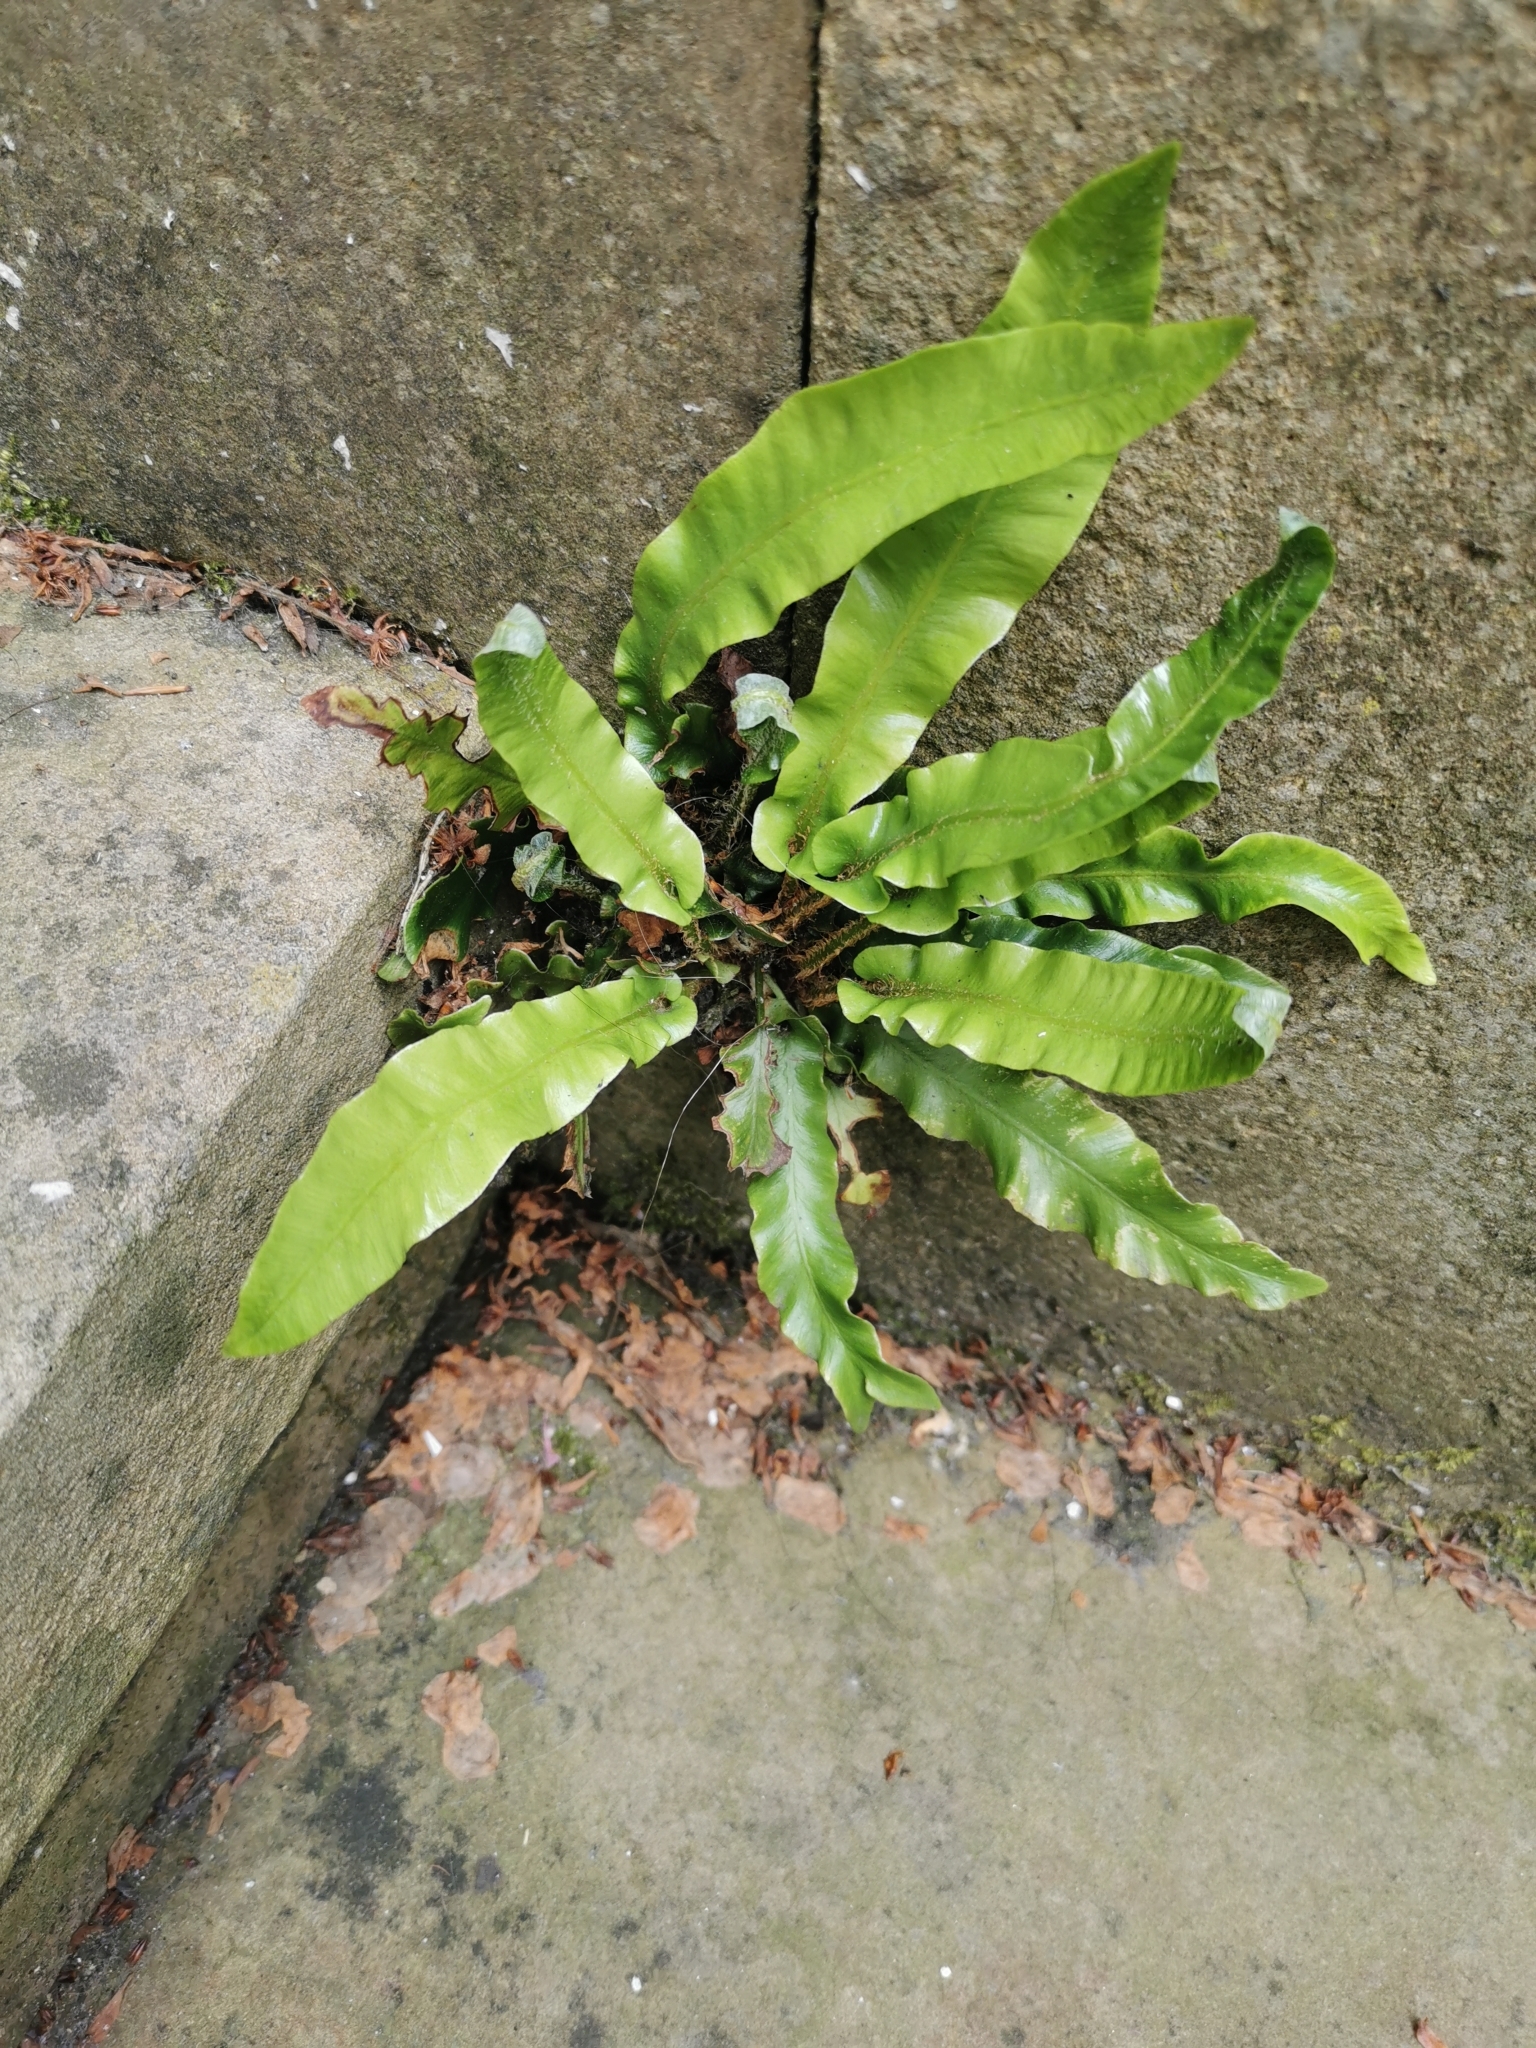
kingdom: Plantae
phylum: Tracheophyta
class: Polypodiopsida
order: Polypodiales
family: Aspleniaceae
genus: Asplenium
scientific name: Asplenium scolopendrium
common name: Hart's-tongue fern
